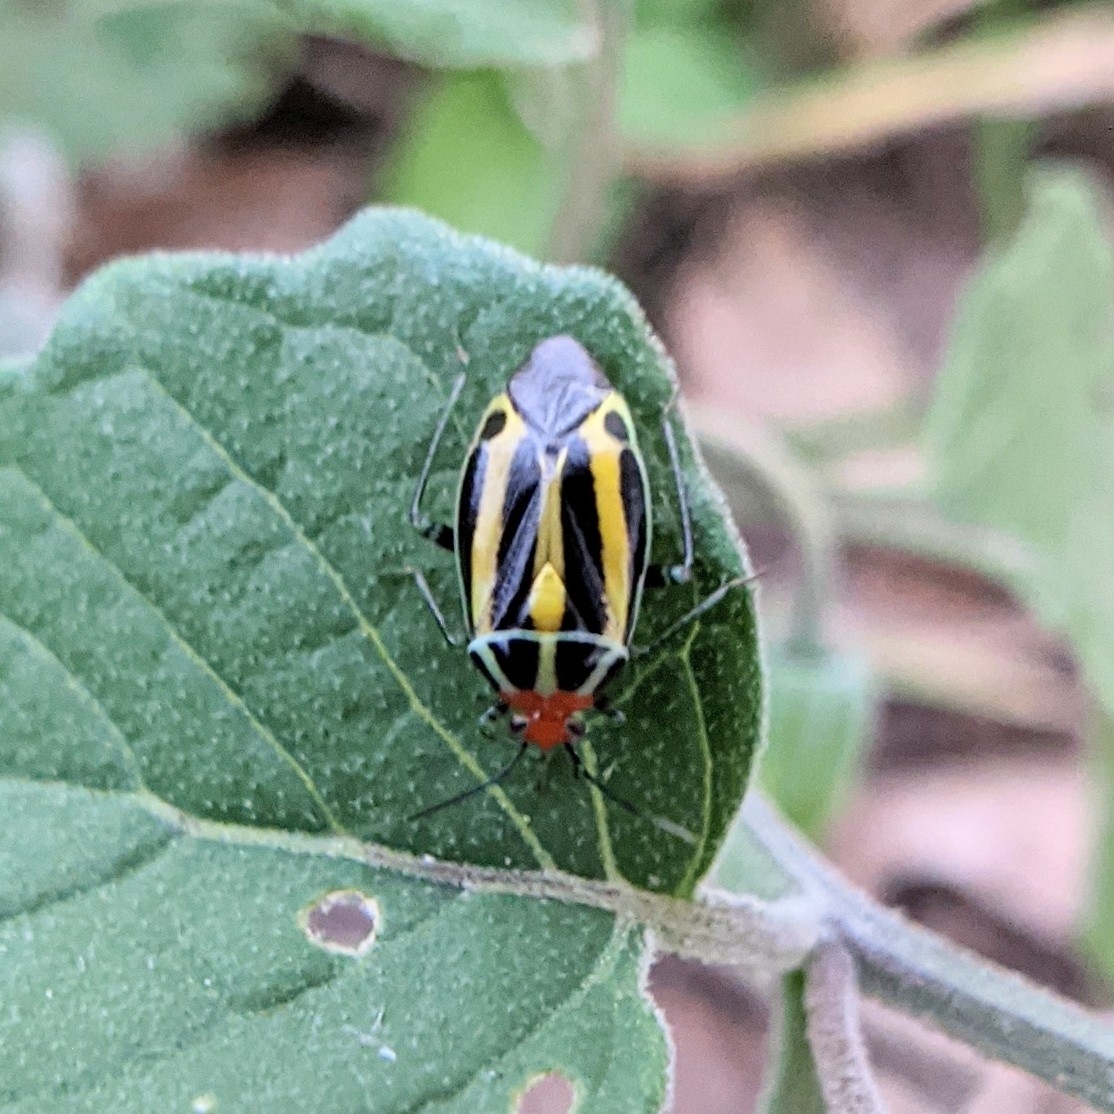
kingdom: Animalia
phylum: Arthropoda
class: Insecta
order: Hemiptera
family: Miridae
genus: Poecilocapsus
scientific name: Poecilocapsus lineatus
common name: Four-lined plant bug
